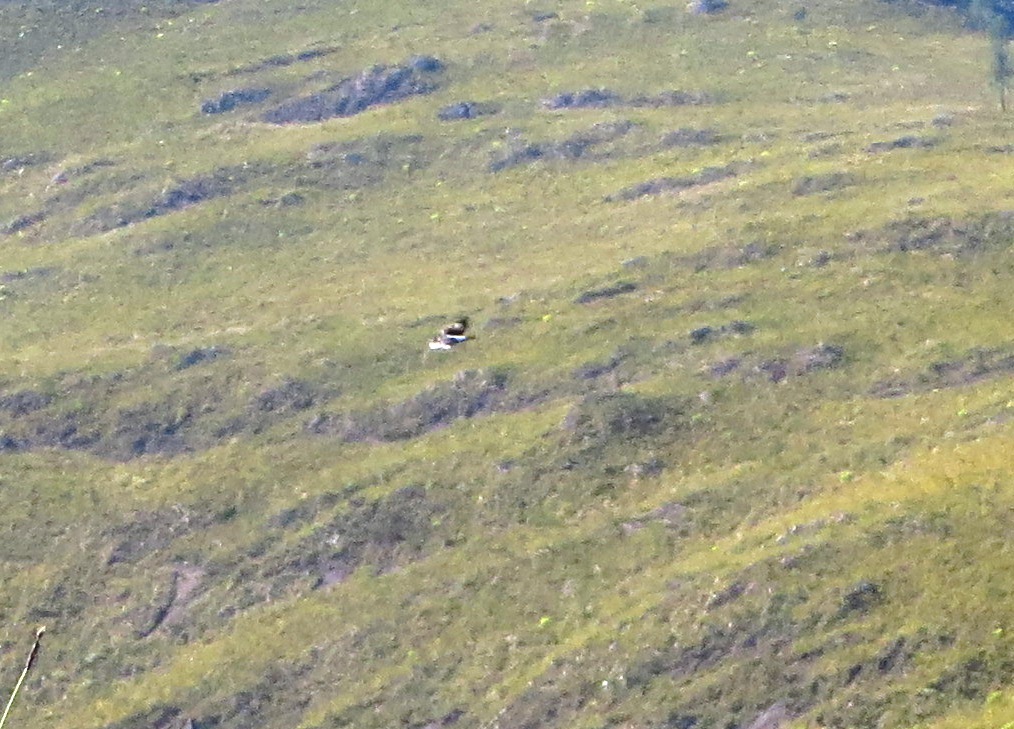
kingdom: Animalia
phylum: Chordata
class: Aves
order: Accipitriformes
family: Accipitridae
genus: Aquila
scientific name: Aquila verreauxii
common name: Verreaux's eagle
